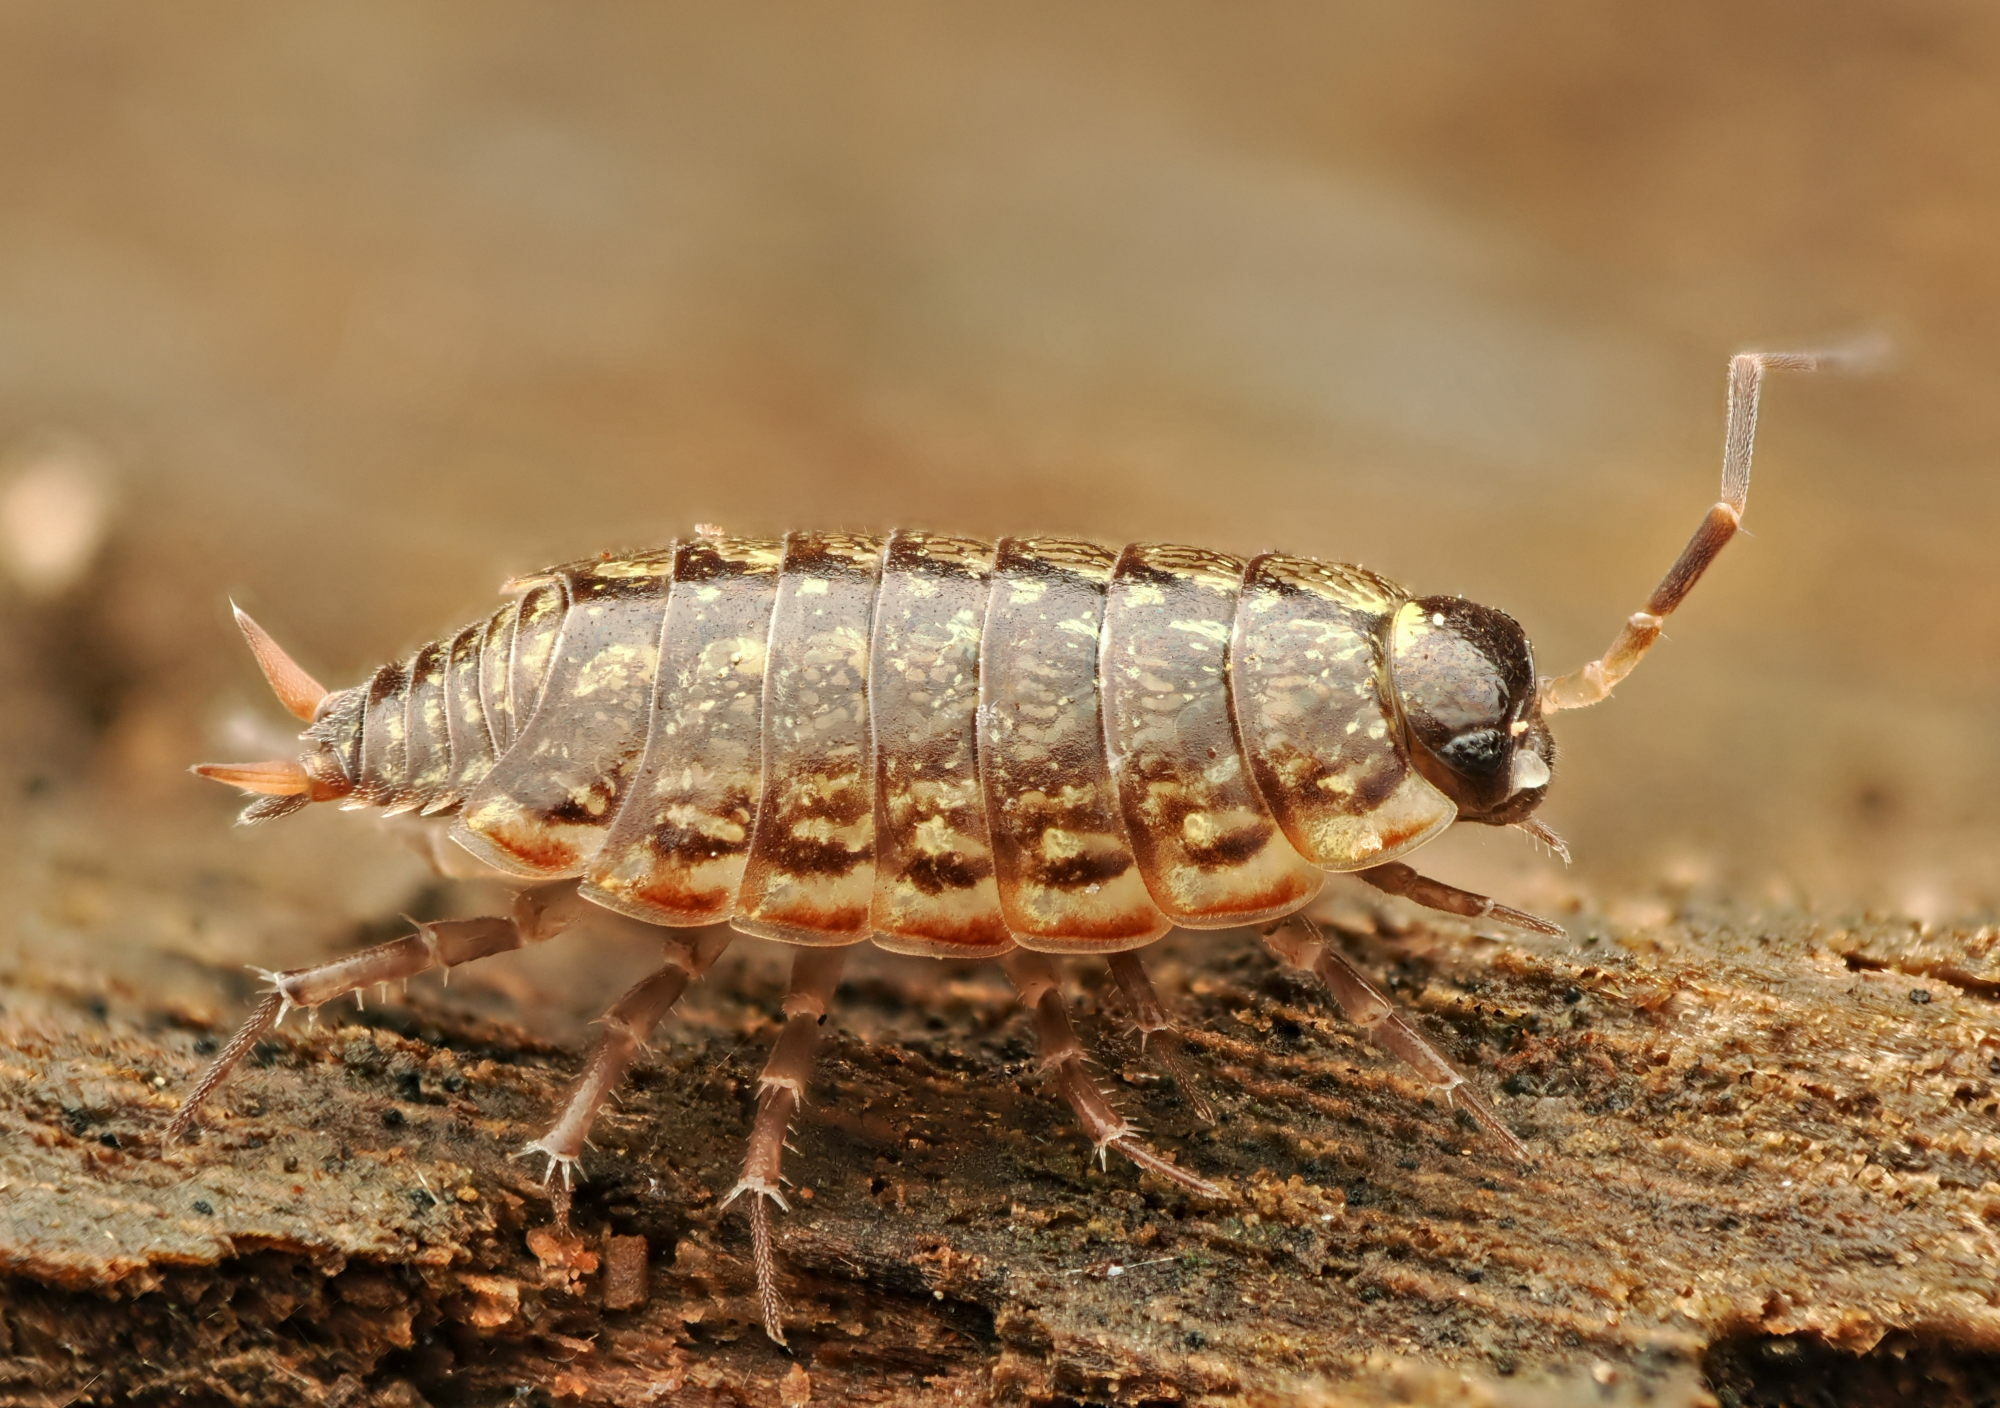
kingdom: Animalia
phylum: Arthropoda
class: Malacostraca
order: Isopoda
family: Philosciidae
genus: Philoscia
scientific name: Philoscia muscorum
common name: Common striped woodlouse
